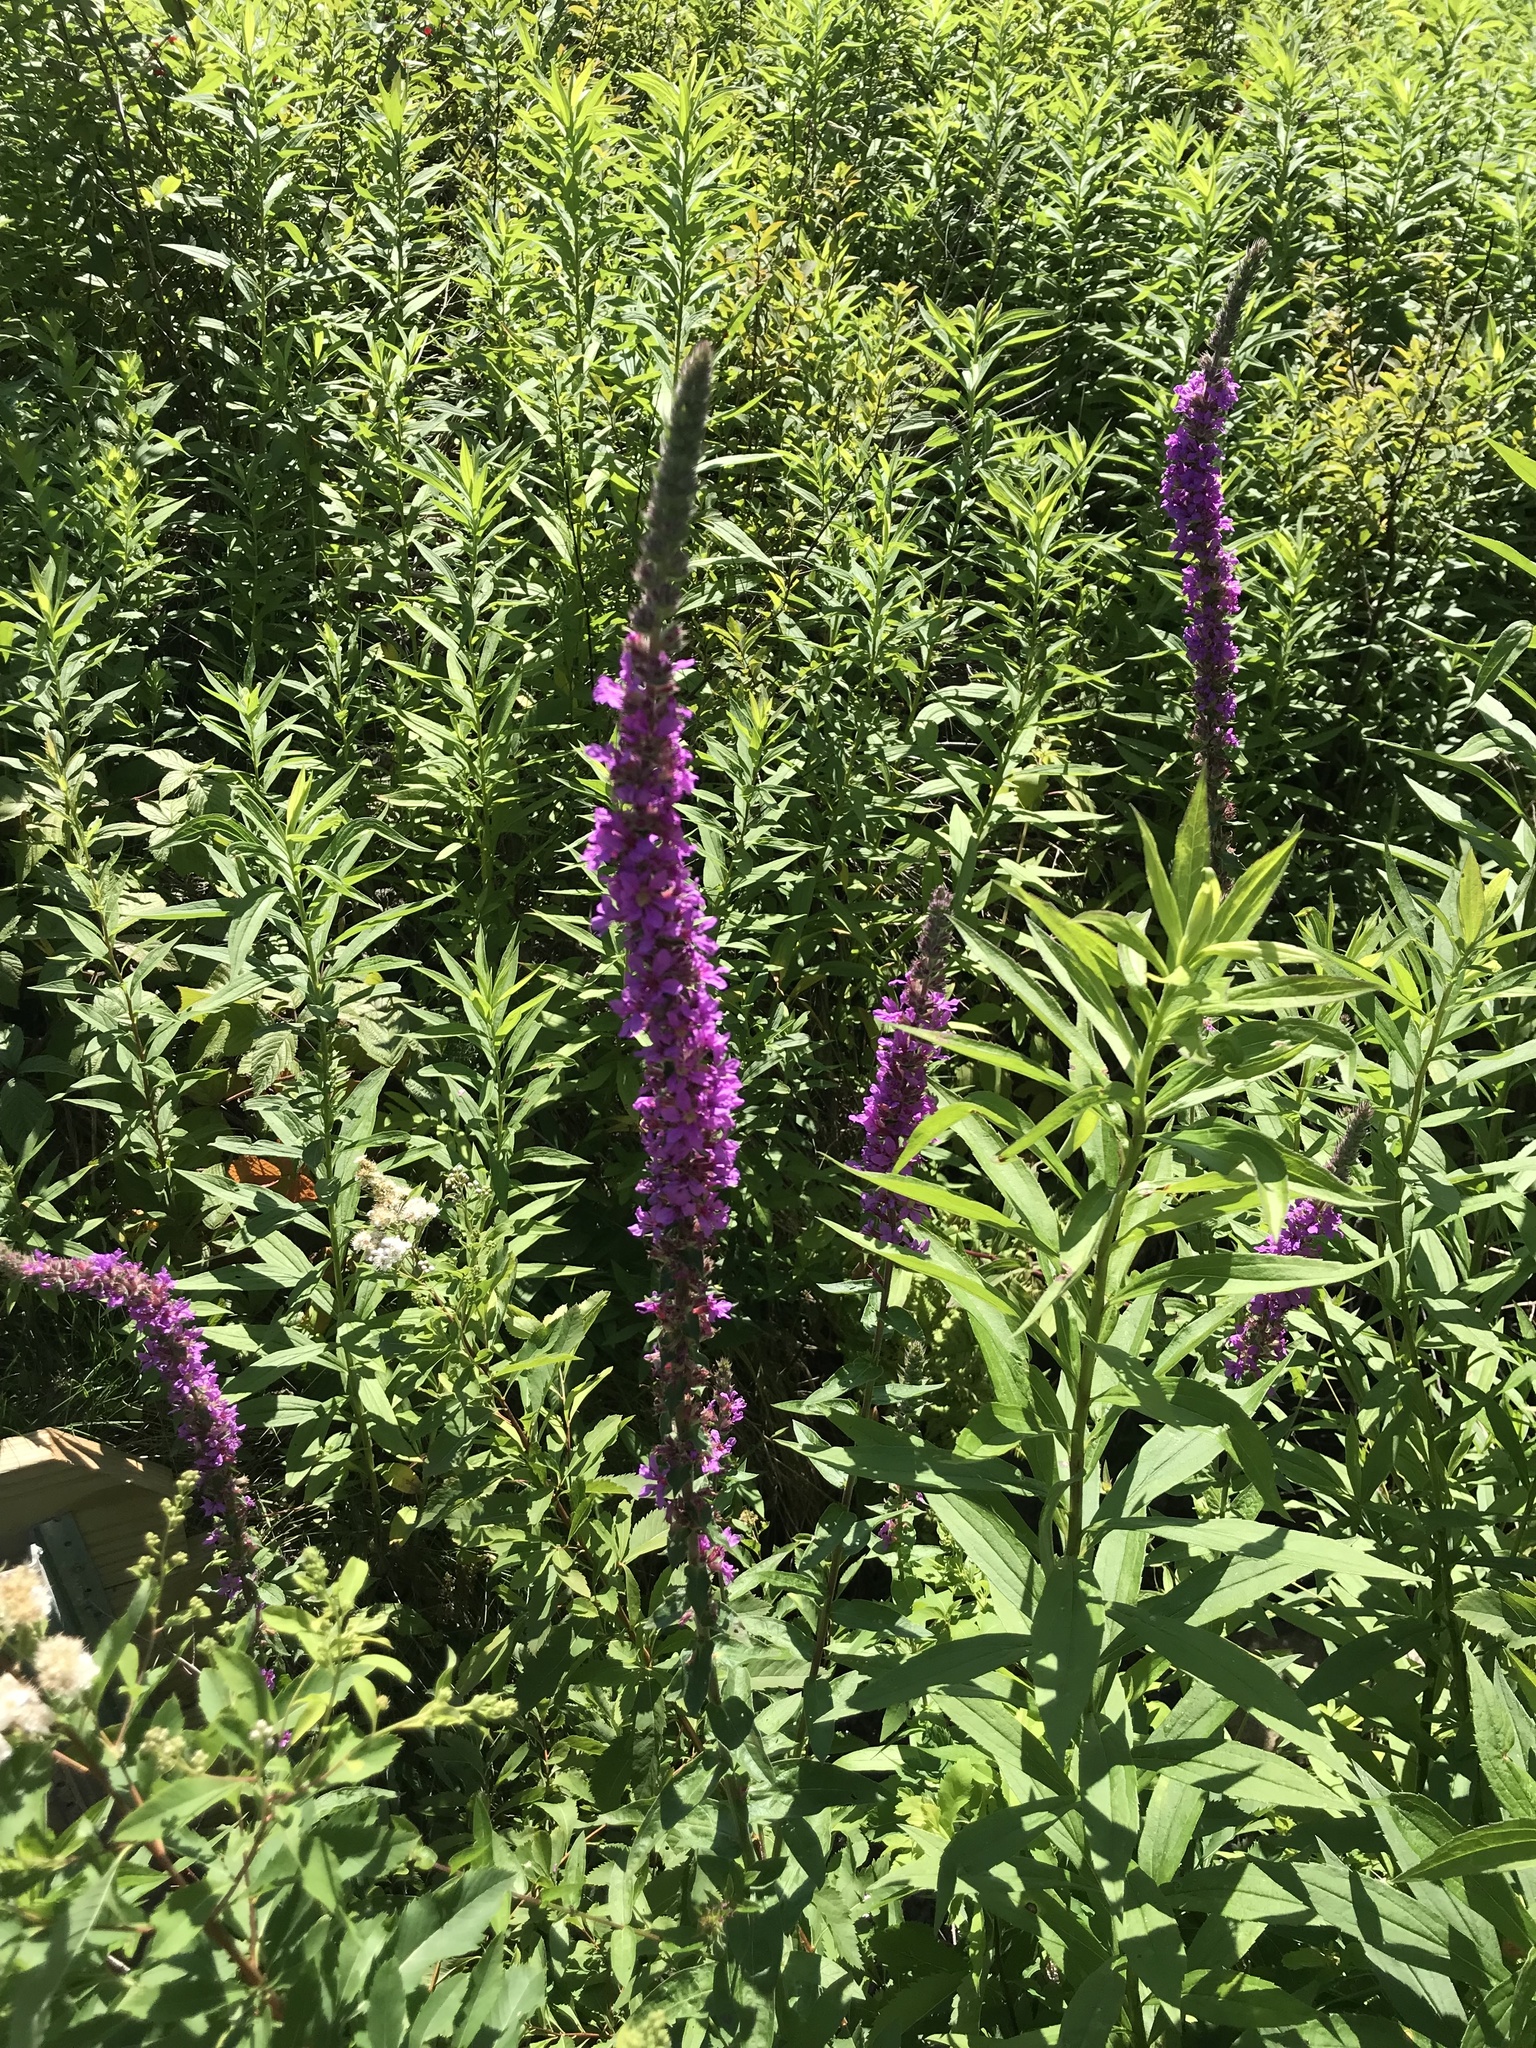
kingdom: Plantae
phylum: Tracheophyta
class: Magnoliopsida
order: Myrtales
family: Lythraceae
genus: Lythrum
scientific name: Lythrum salicaria
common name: Purple loosestrife
